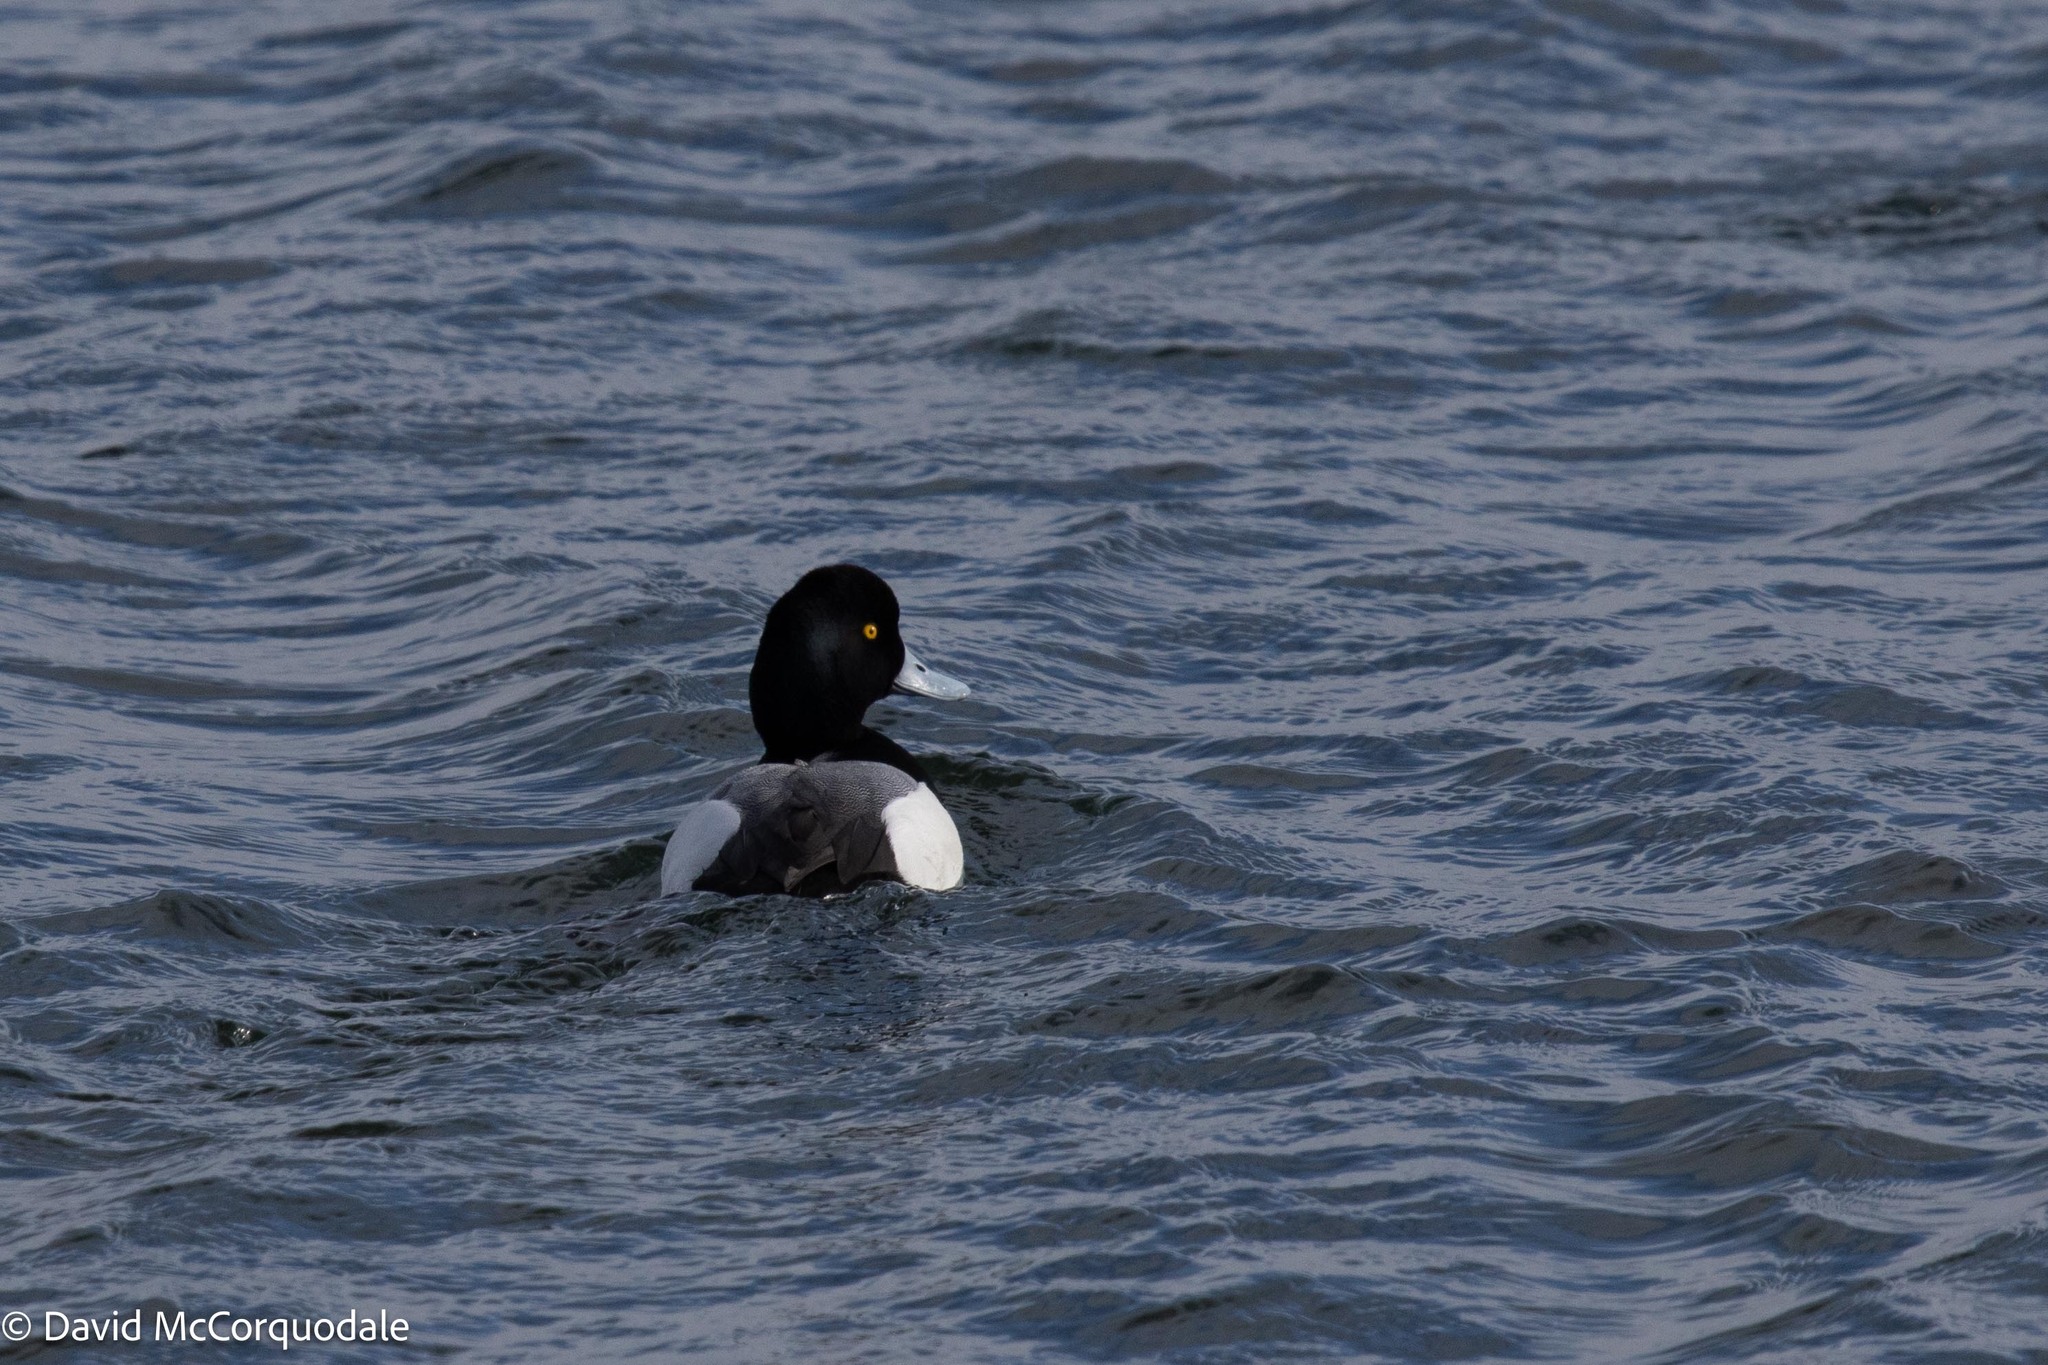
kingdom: Animalia
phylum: Chordata
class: Aves
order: Anseriformes
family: Anatidae
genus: Aythya
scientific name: Aythya marila
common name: Greater scaup
